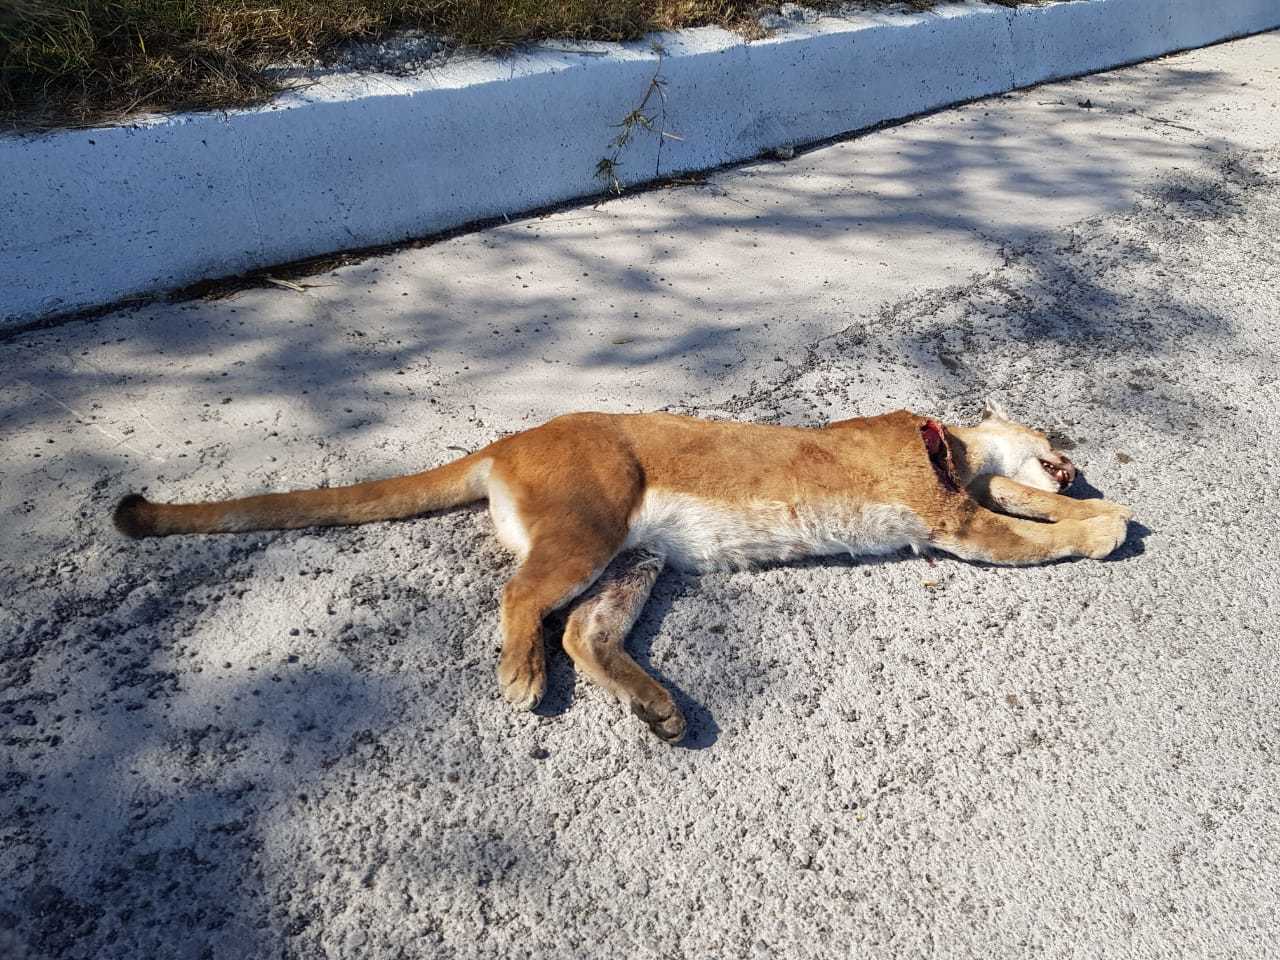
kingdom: Animalia
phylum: Chordata
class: Mammalia
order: Carnivora
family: Felidae
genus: Puma
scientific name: Puma concolor
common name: Puma
